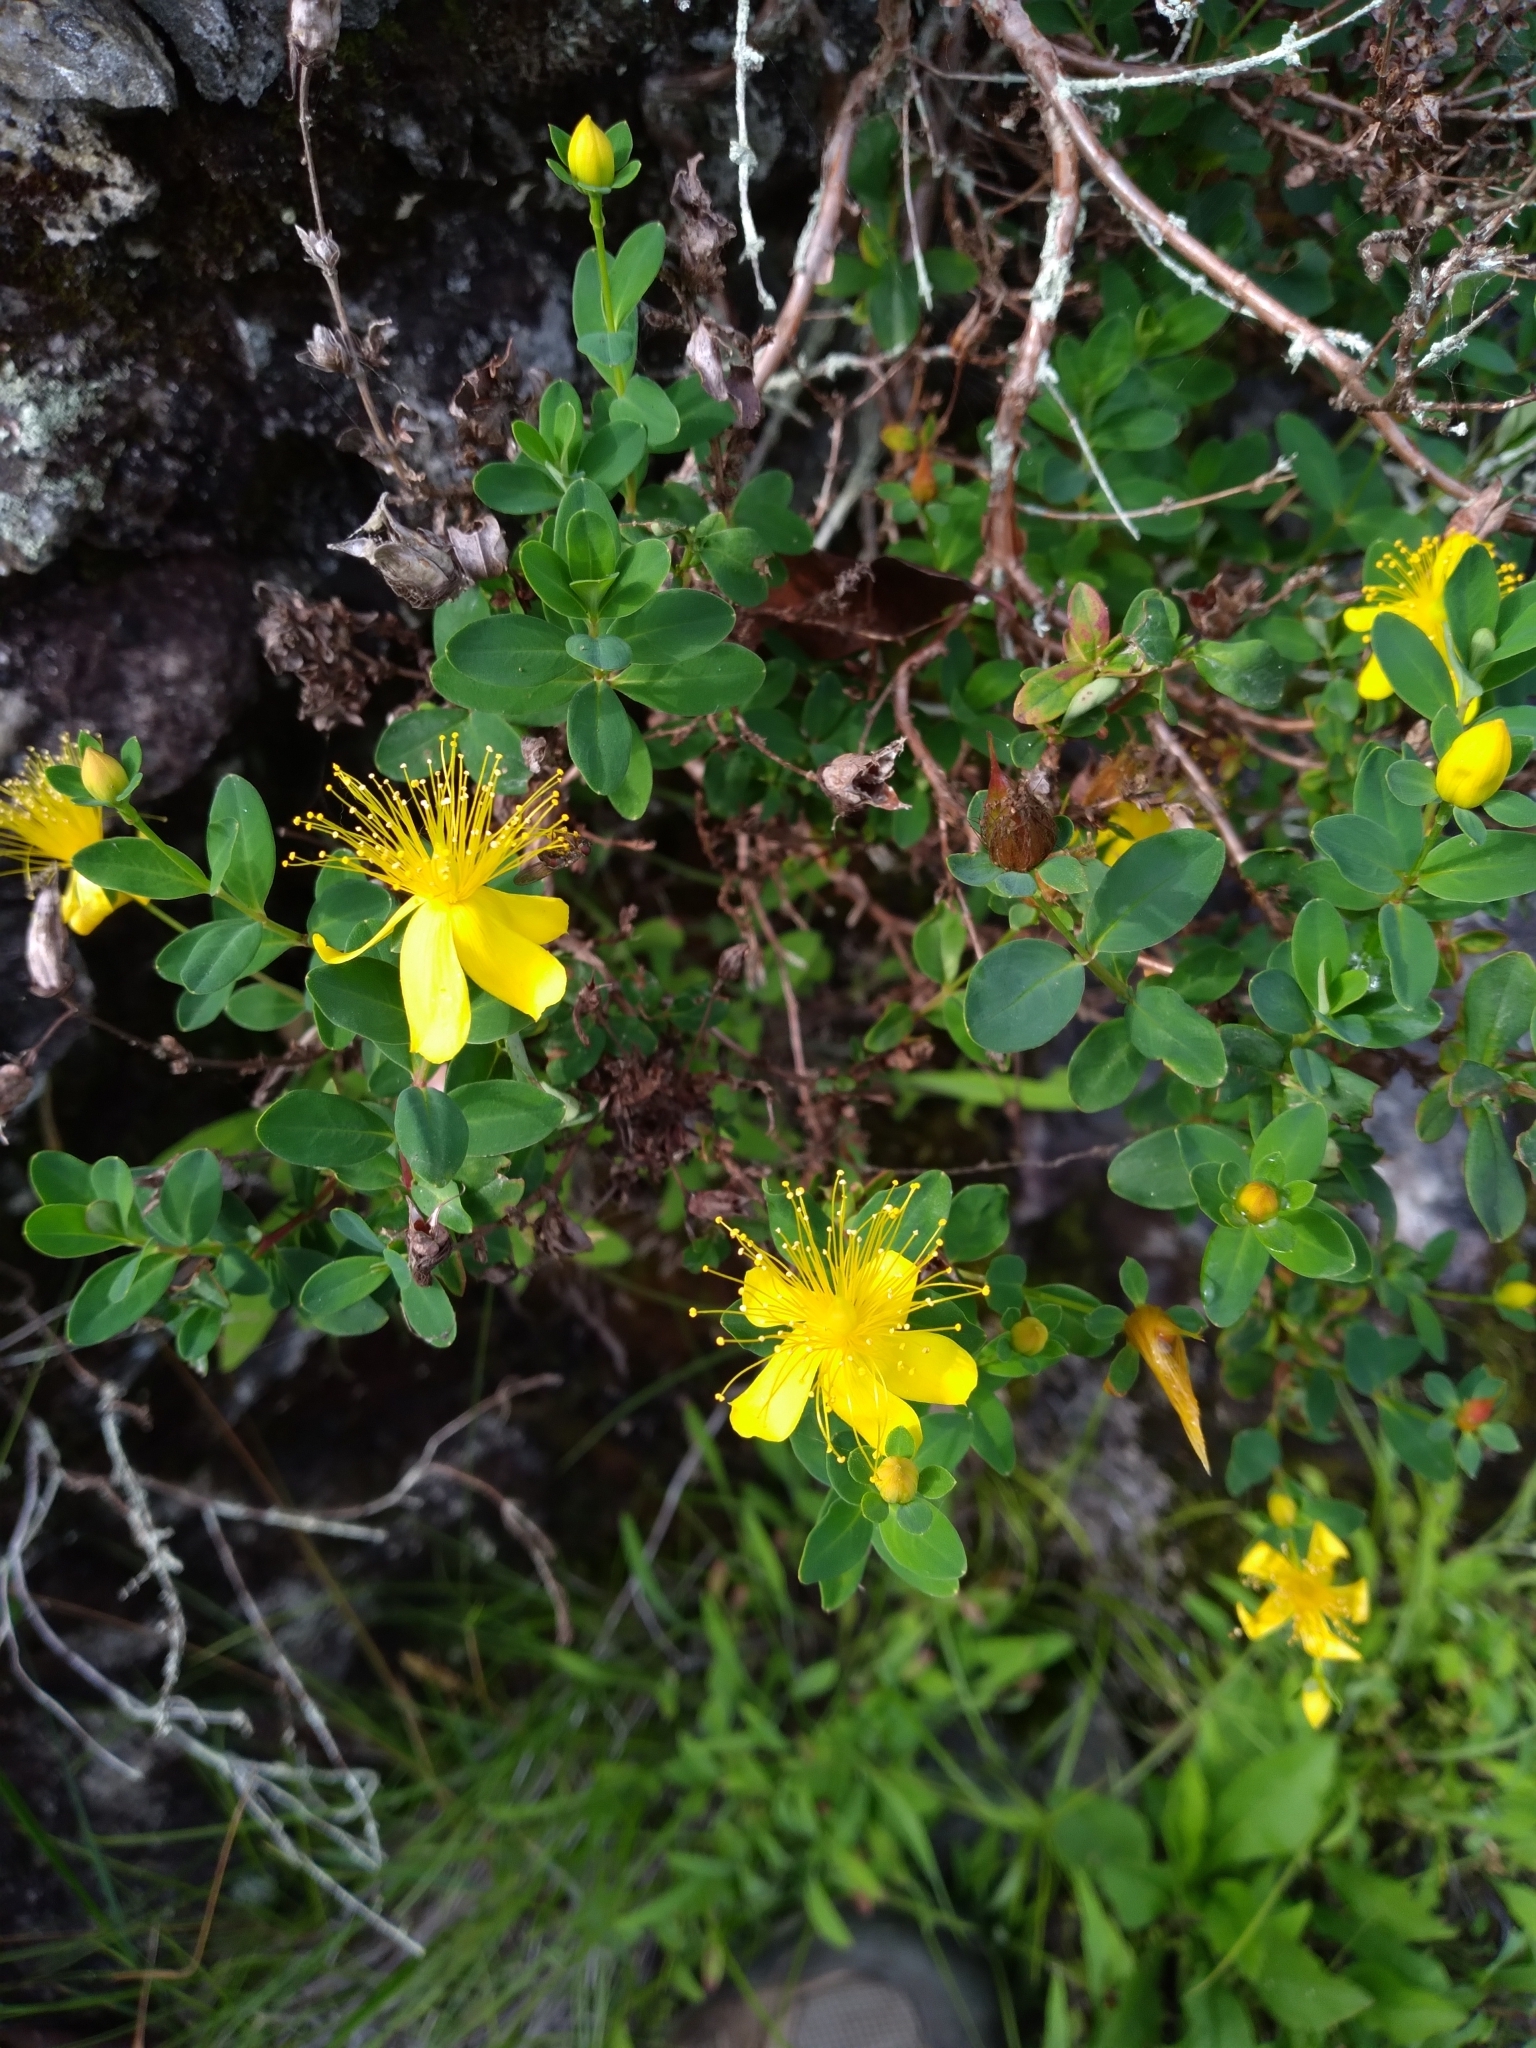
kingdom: Plantae
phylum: Tracheophyta
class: Magnoliopsida
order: Malpighiales
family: Hypericaceae
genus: Hypericum
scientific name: Hypericum buckleyi
